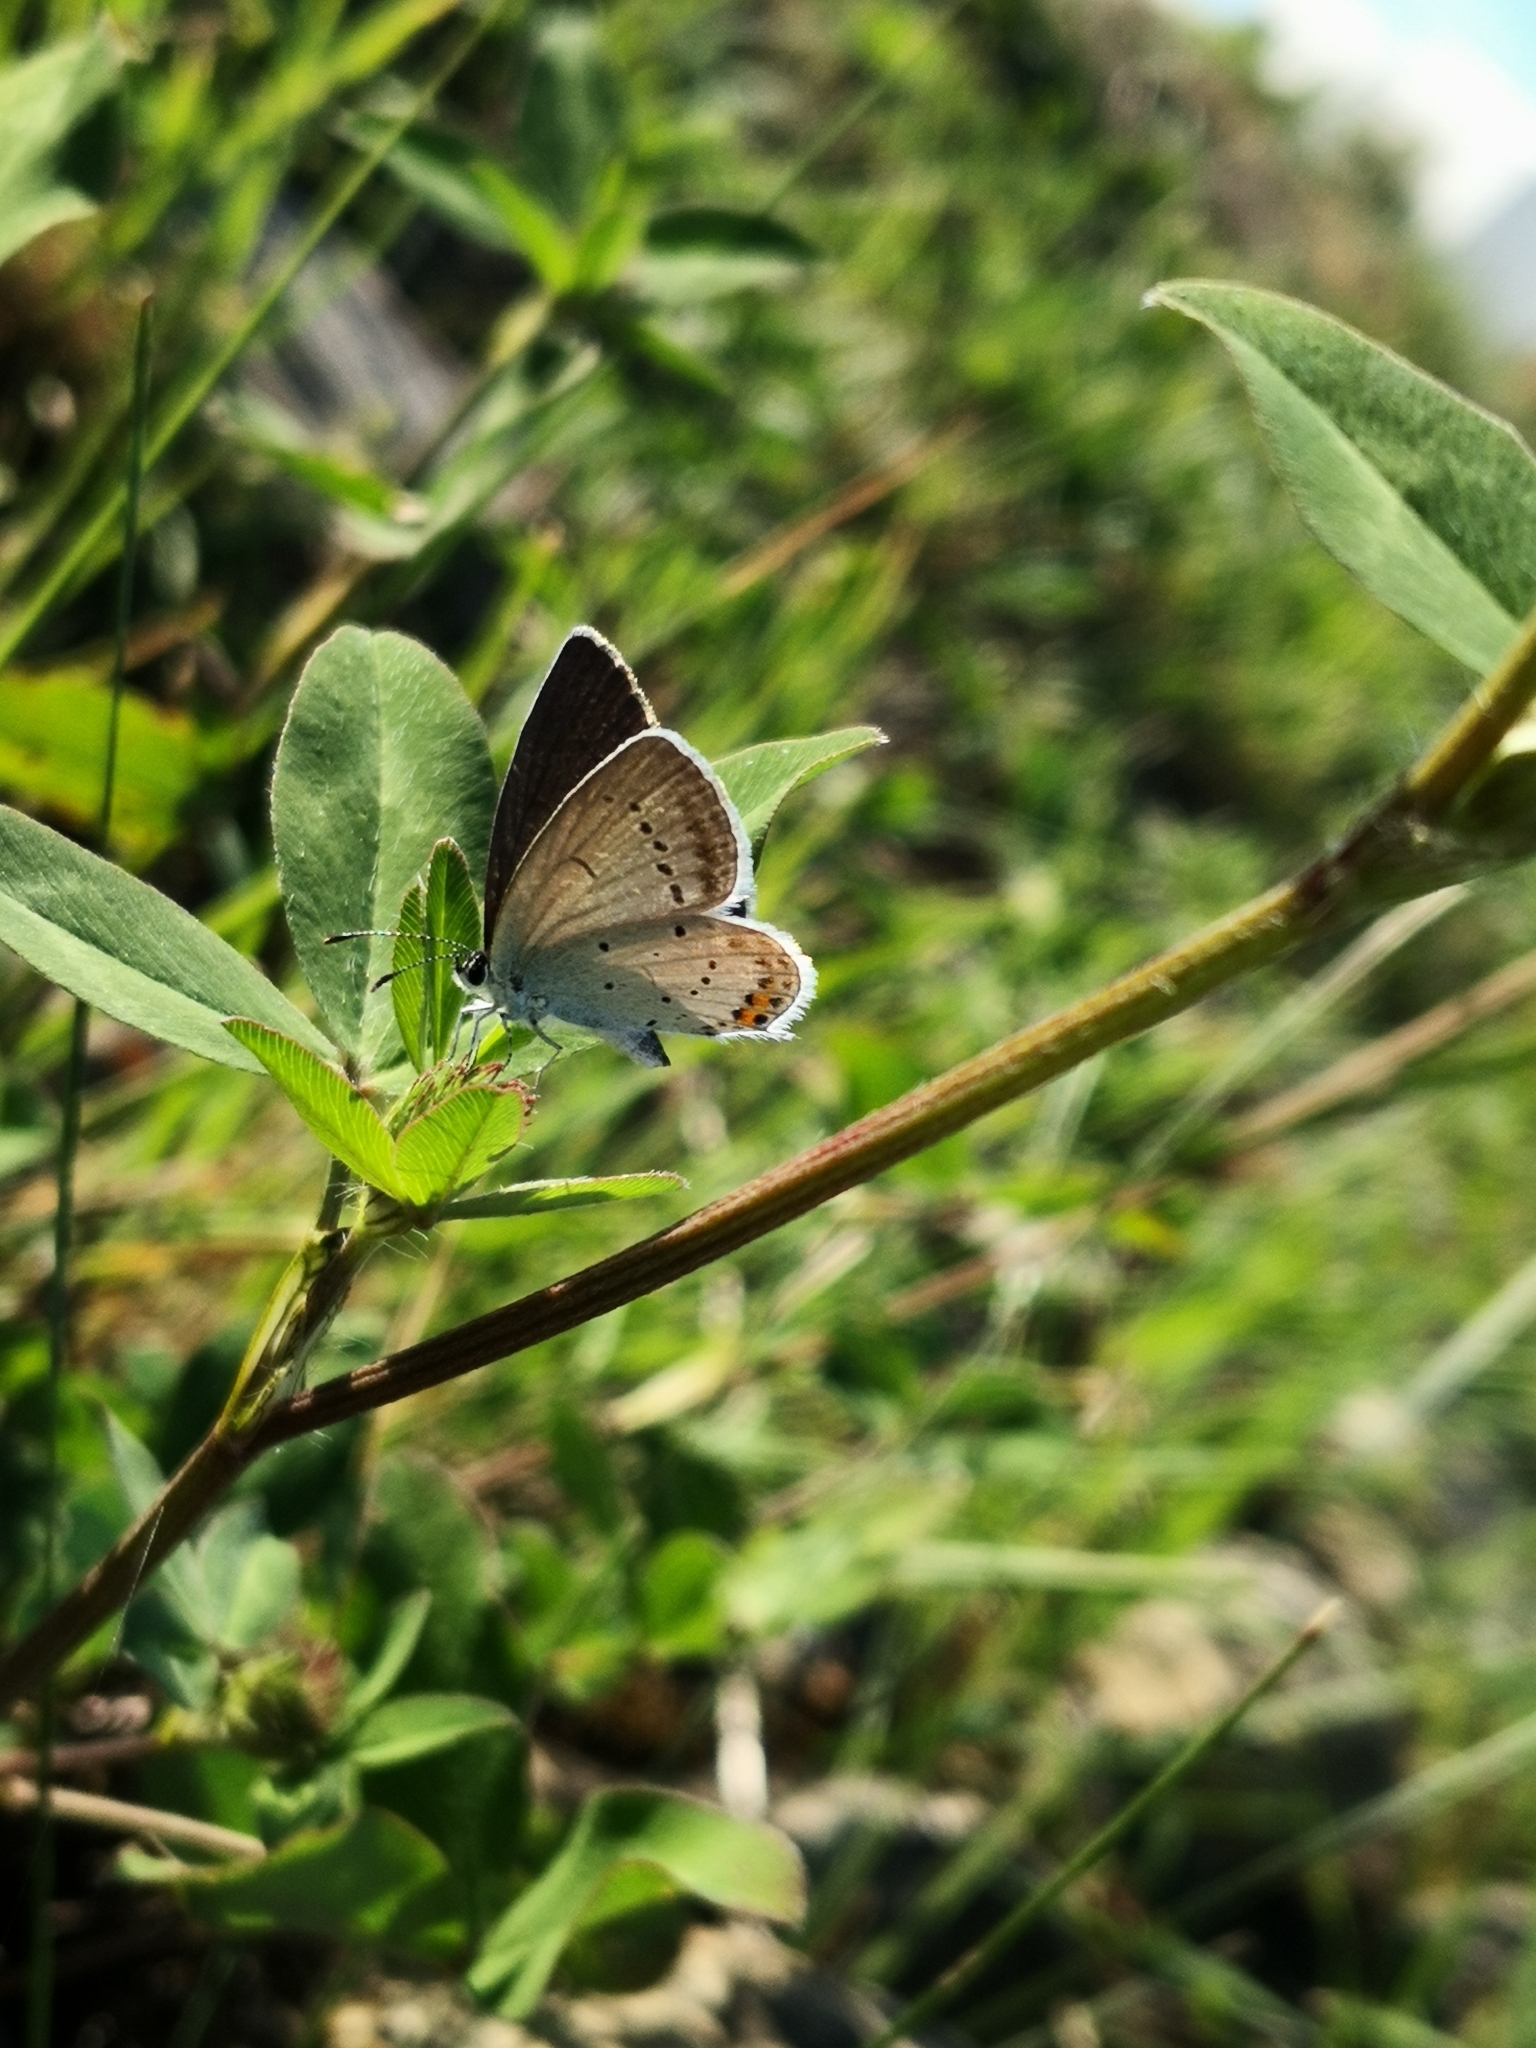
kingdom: Animalia
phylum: Arthropoda
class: Insecta
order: Lepidoptera
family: Lycaenidae
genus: Elkalyce
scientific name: Elkalyce argiades
